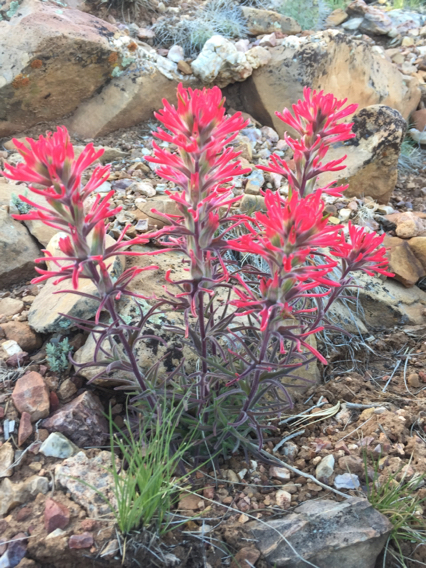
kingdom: Plantae
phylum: Tracheophyta
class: Magnoliopsida
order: Lamiales
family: Orobanchaceae
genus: Castilleja
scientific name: Castilleja chromosa
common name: Desert paintbrush
